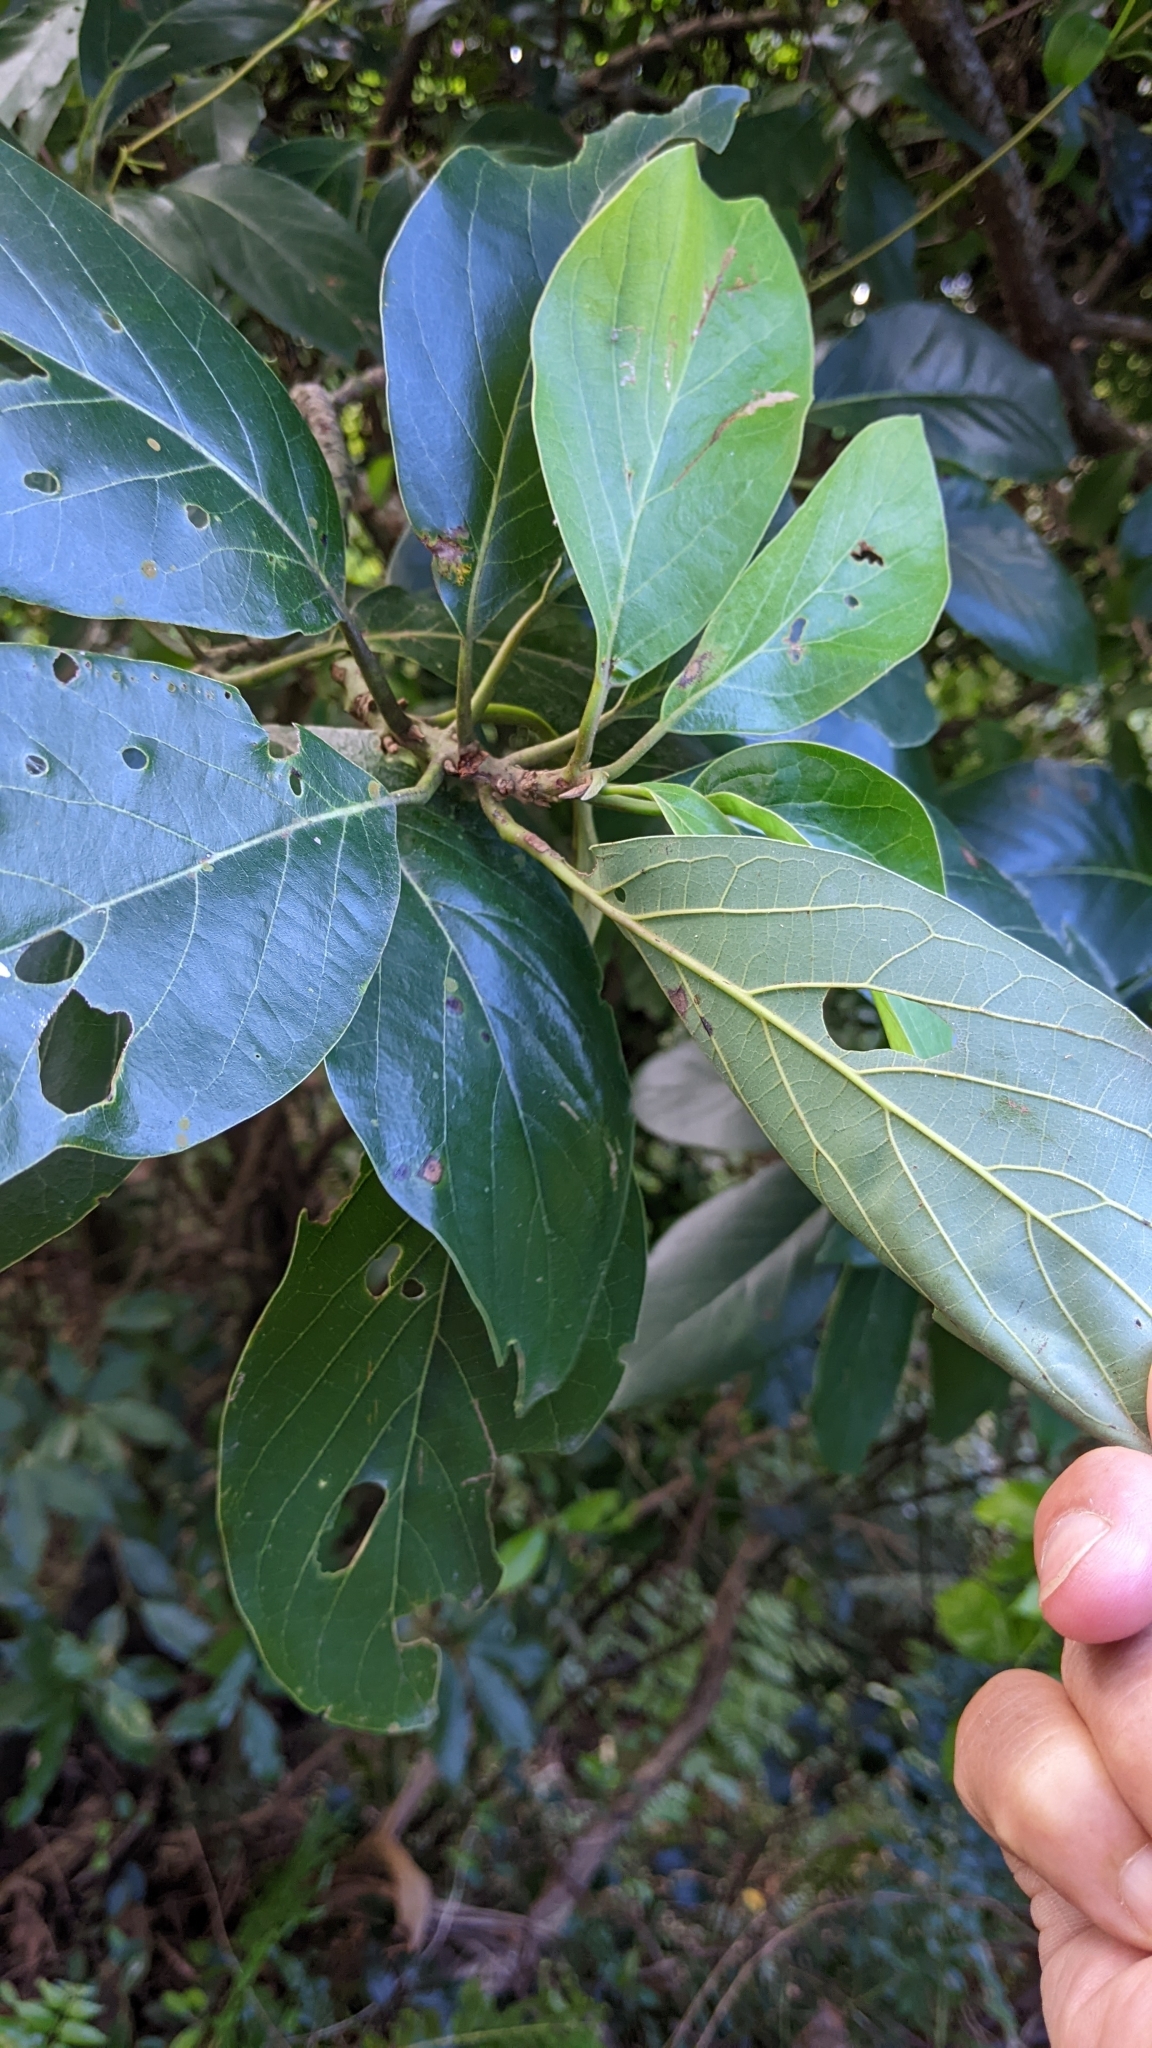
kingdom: Plantae
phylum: Tracheophyta
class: Magnoliopsida
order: Laurales
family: Lauraceae
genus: Lindera
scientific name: Lindera megaphylla
